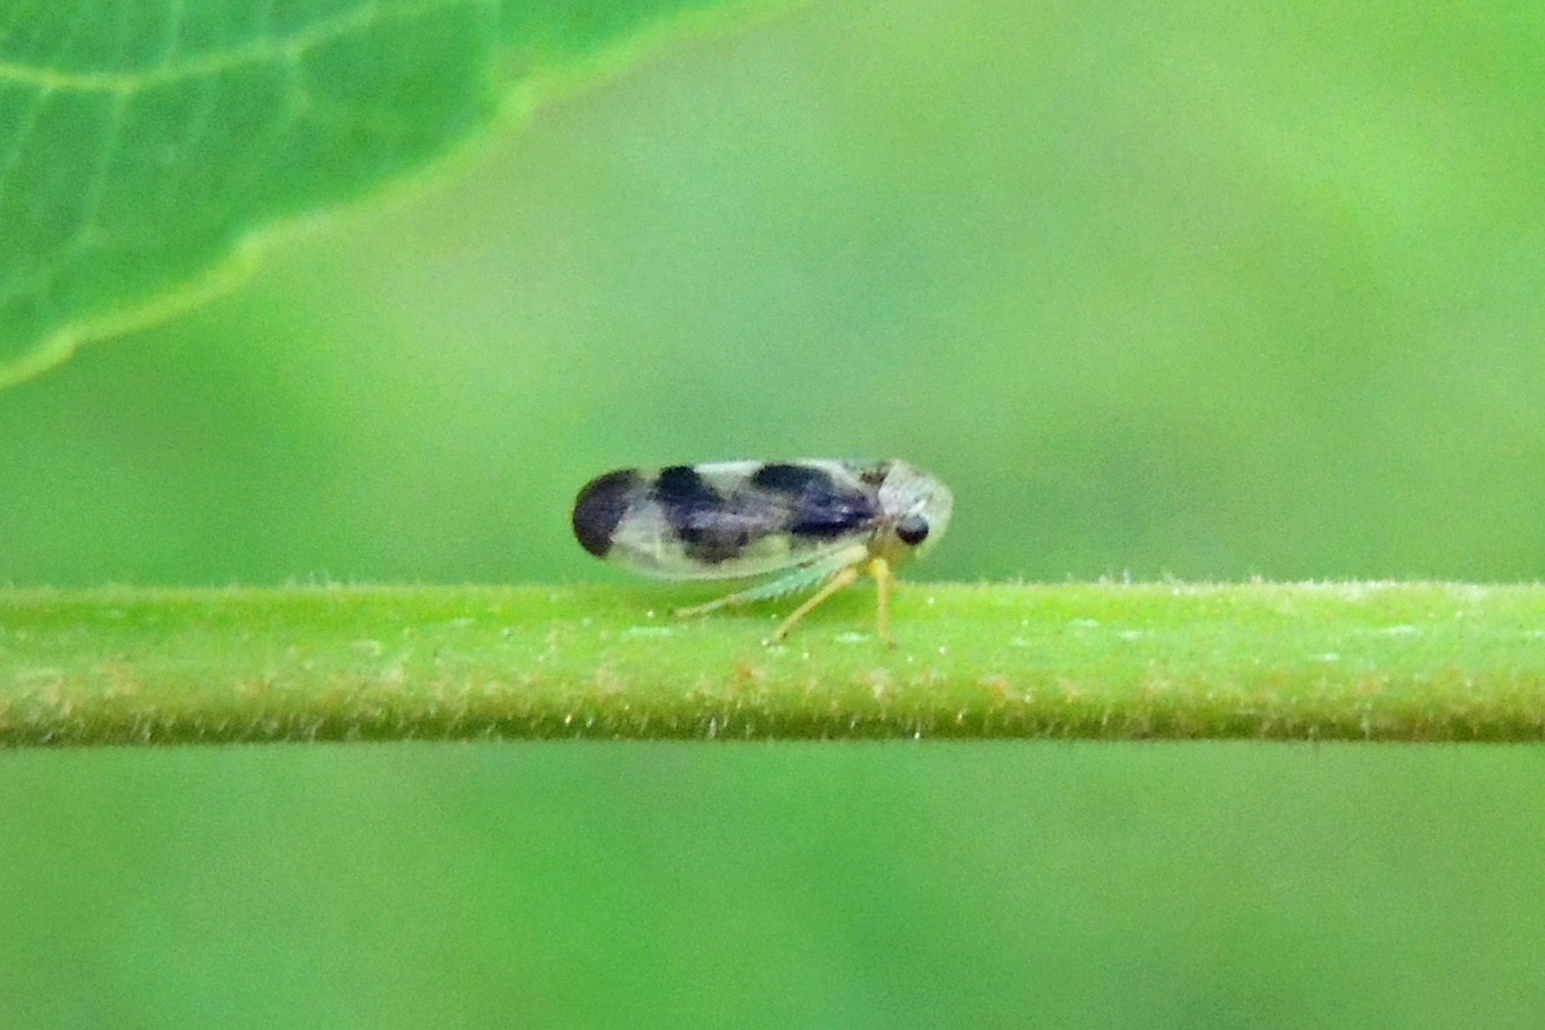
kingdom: Animalia
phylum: Arthropoda
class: Insecta
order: Hemiptera
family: Cicadellidae
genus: Pediopsoides
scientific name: Pediopsoides distinctus
